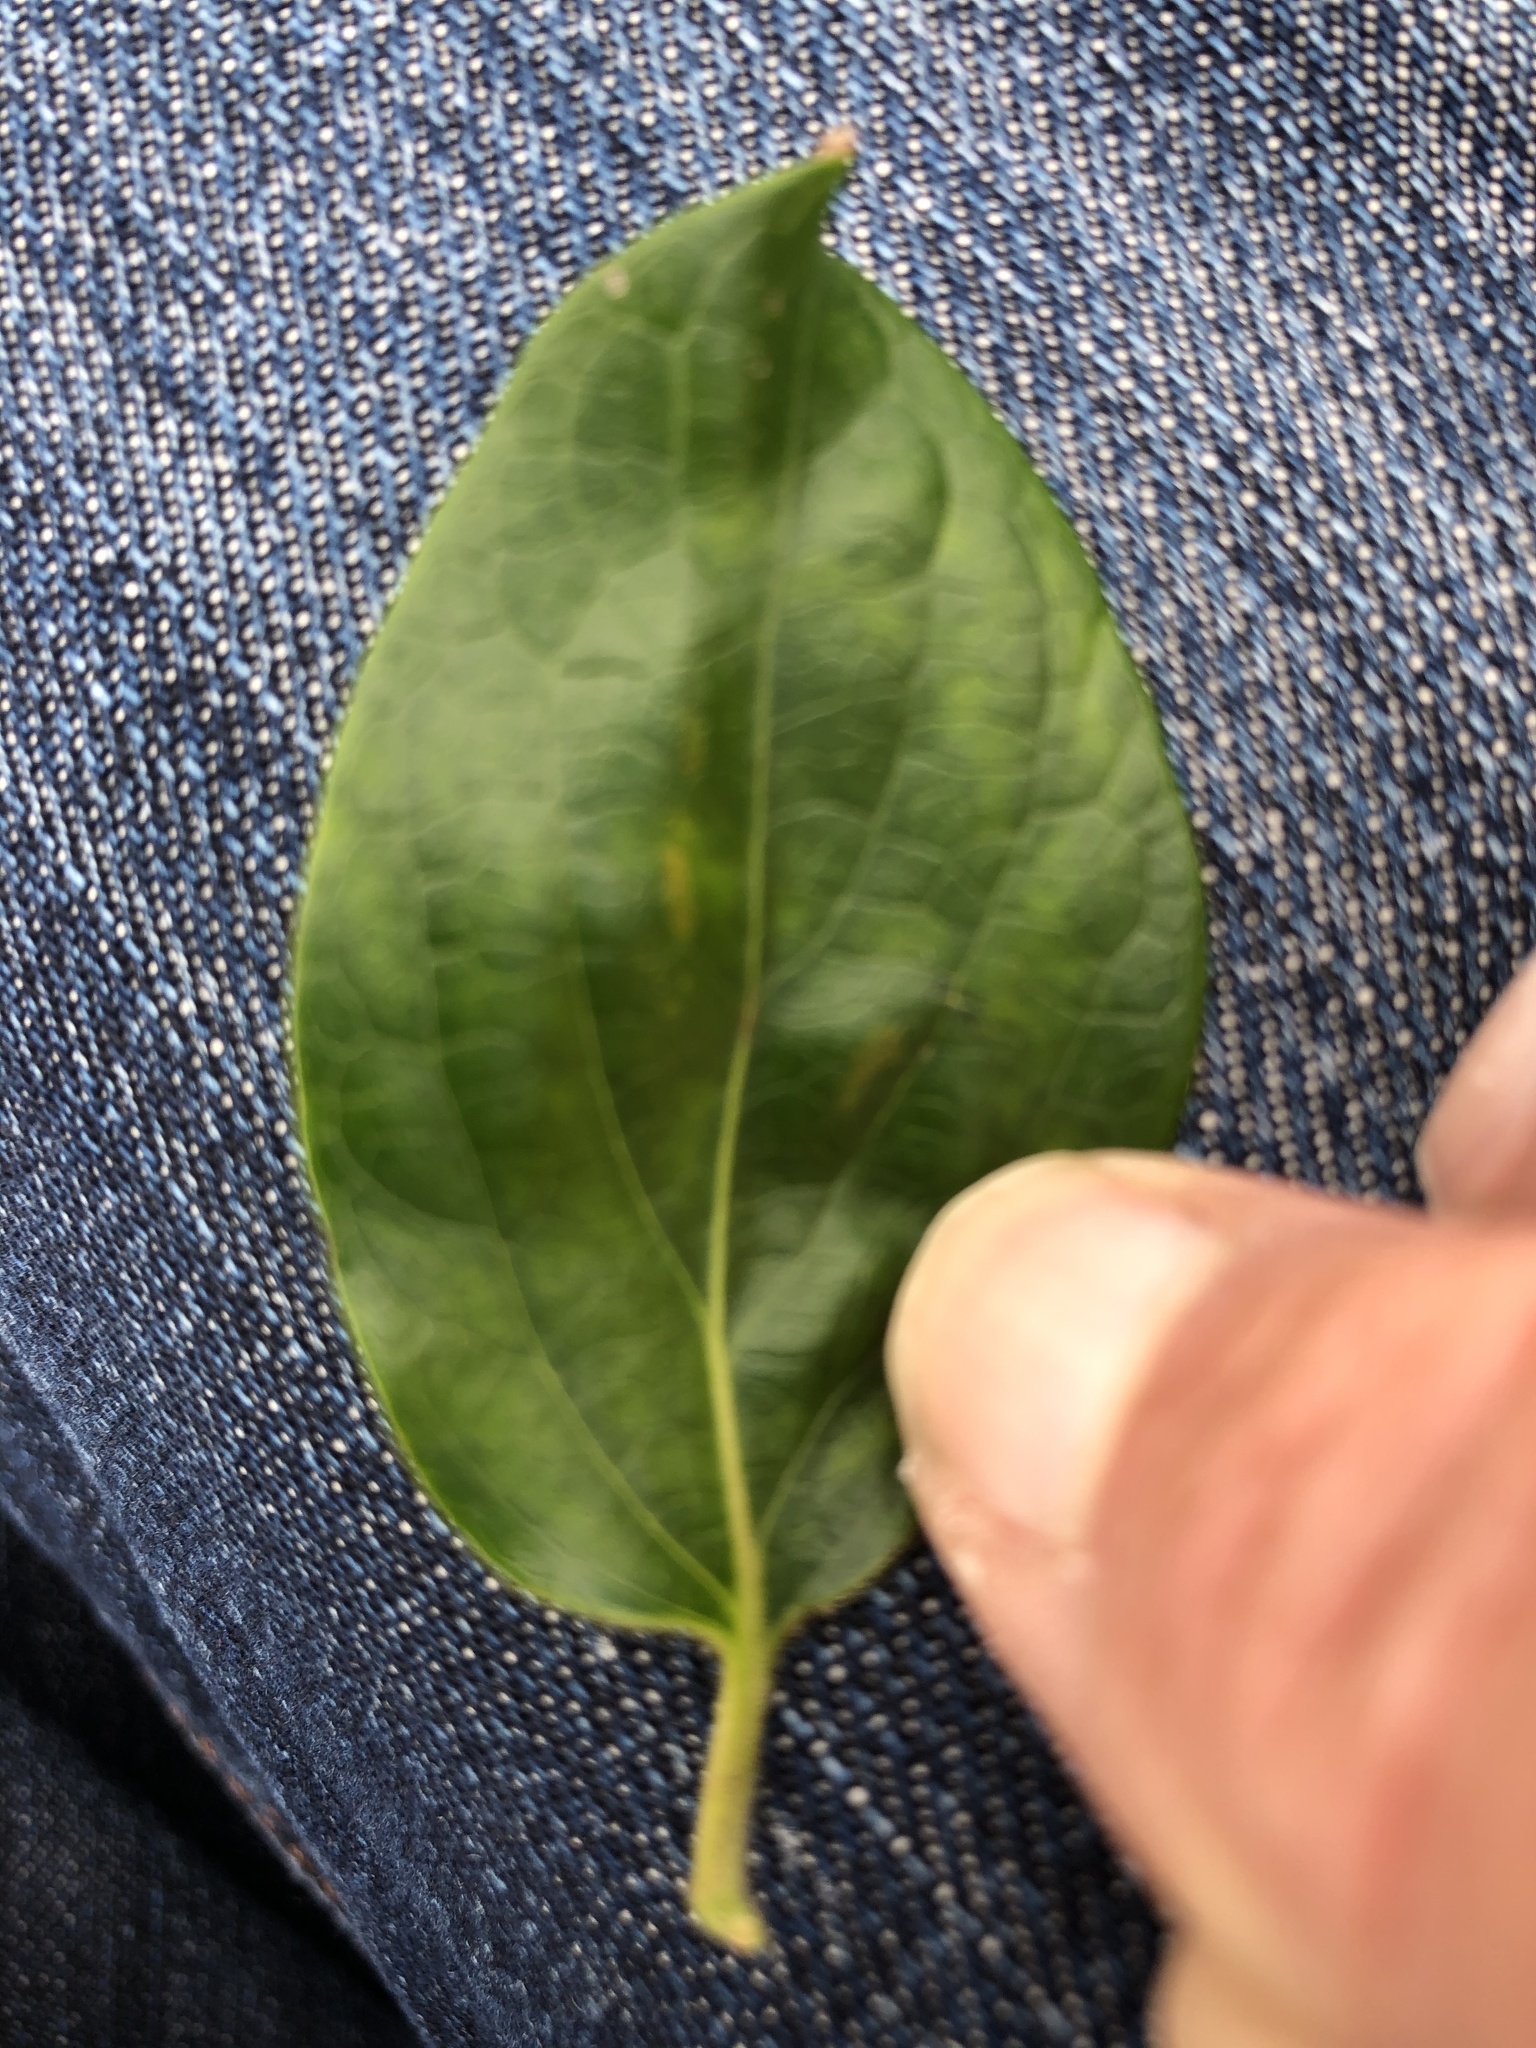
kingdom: Plantae
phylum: Tracheophyta
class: Magnoliopsida
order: Dipsacales
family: Caprifoliaceae
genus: Lonicera
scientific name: Lonicera japonica
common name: Japanese honeysuckle
